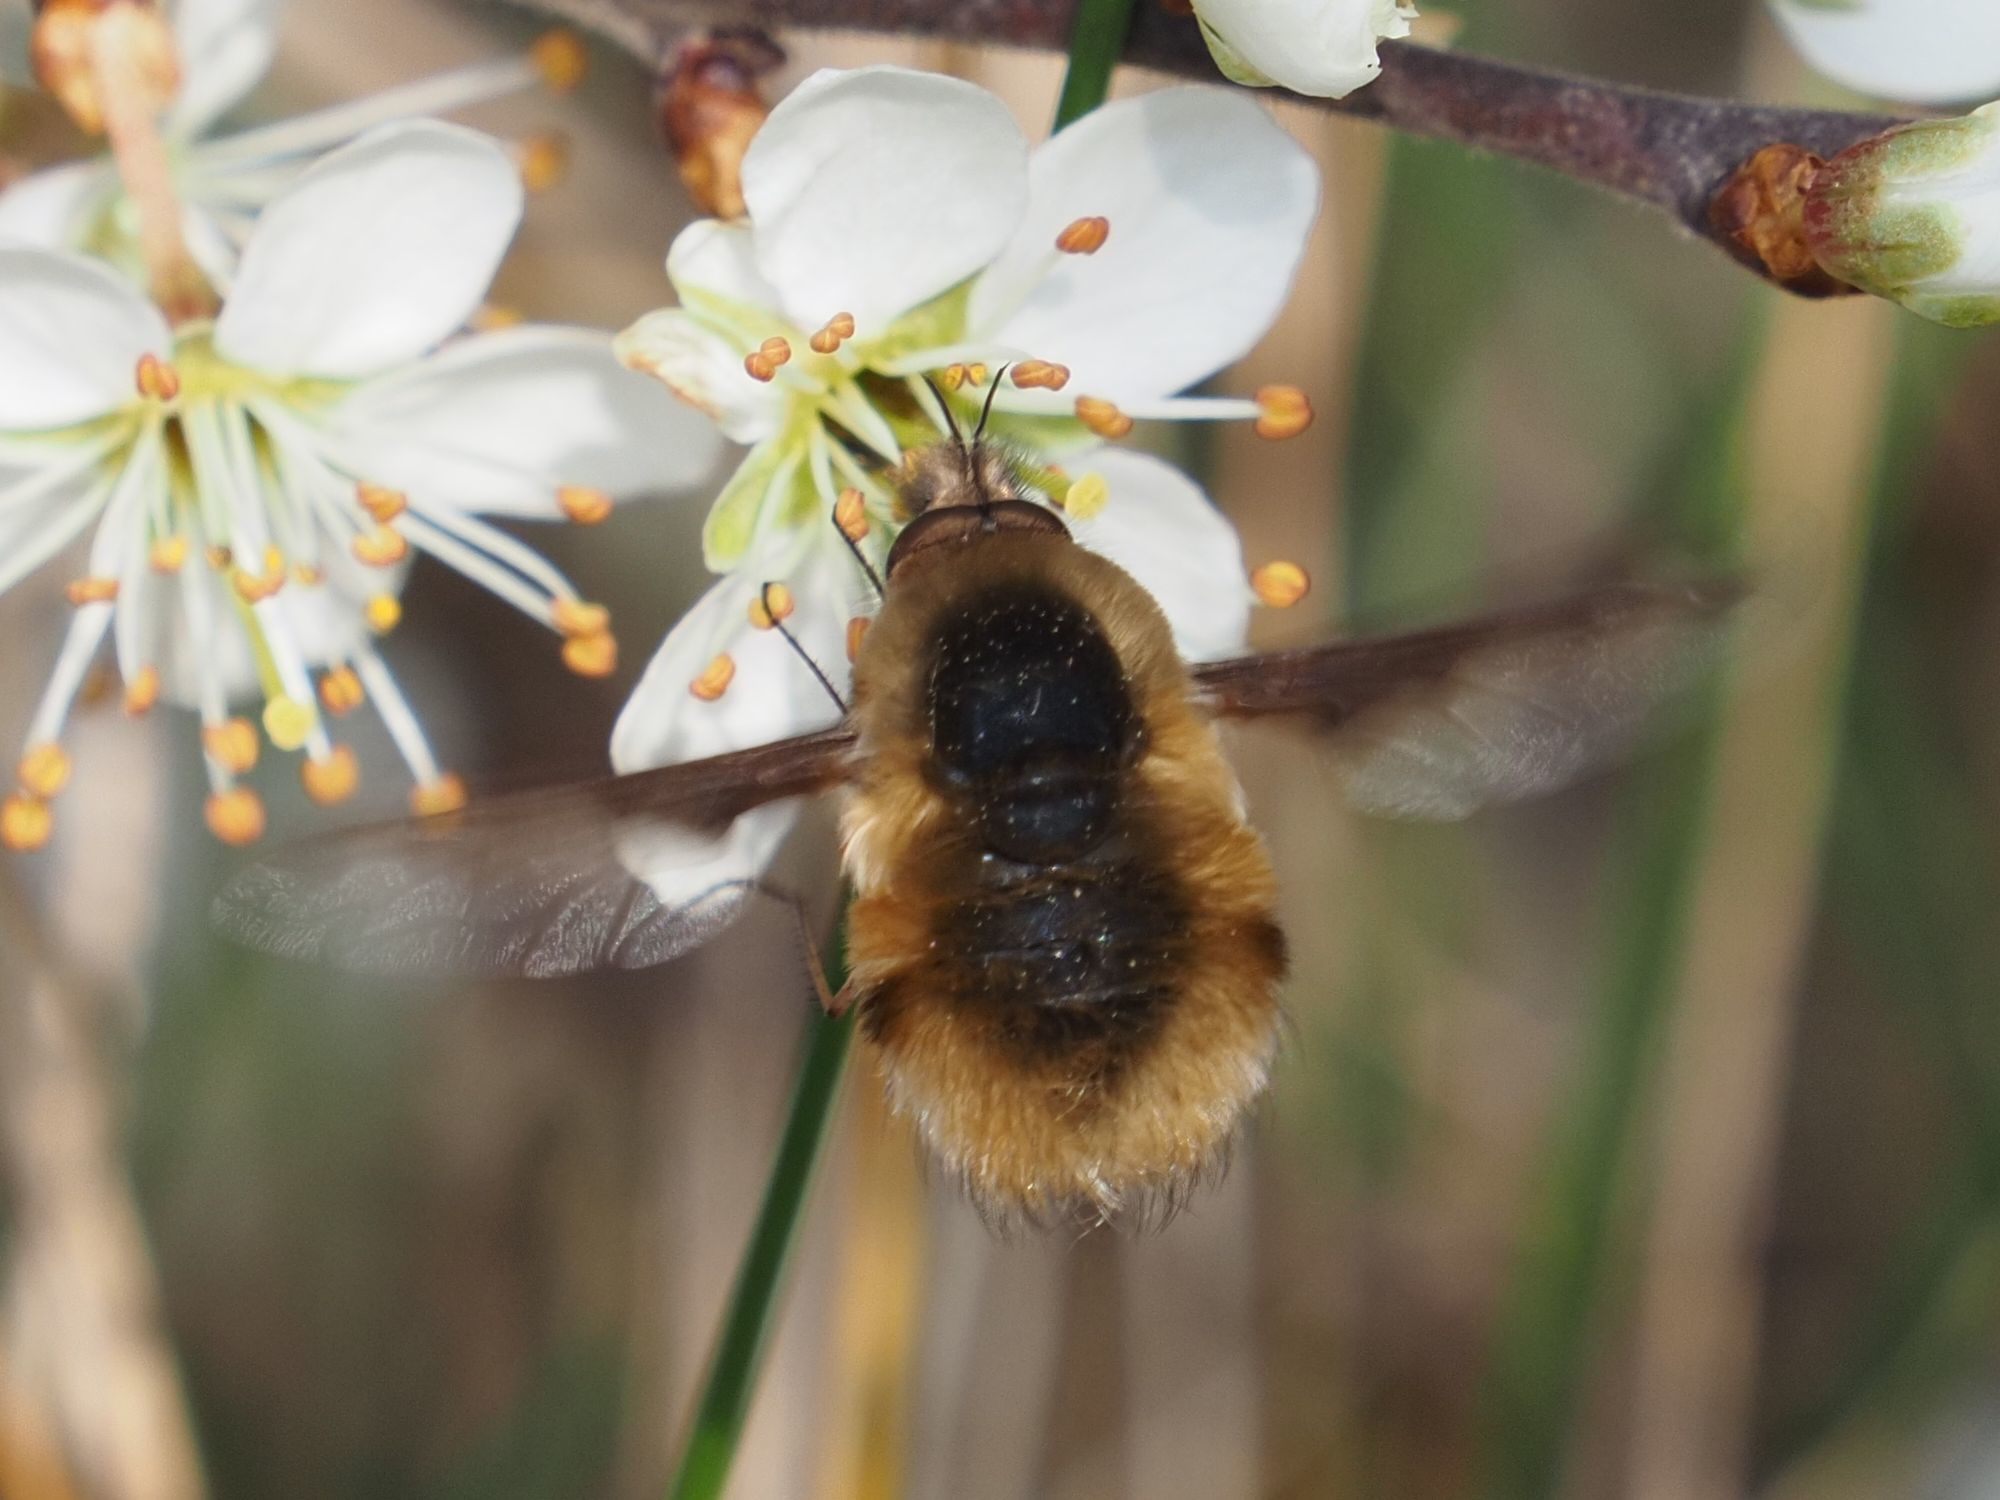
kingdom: Animalia
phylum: Arthropoda
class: Insecta
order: Diptera
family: Bombyliidae
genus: Bombylius
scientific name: Bombylius major
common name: Bee fly
